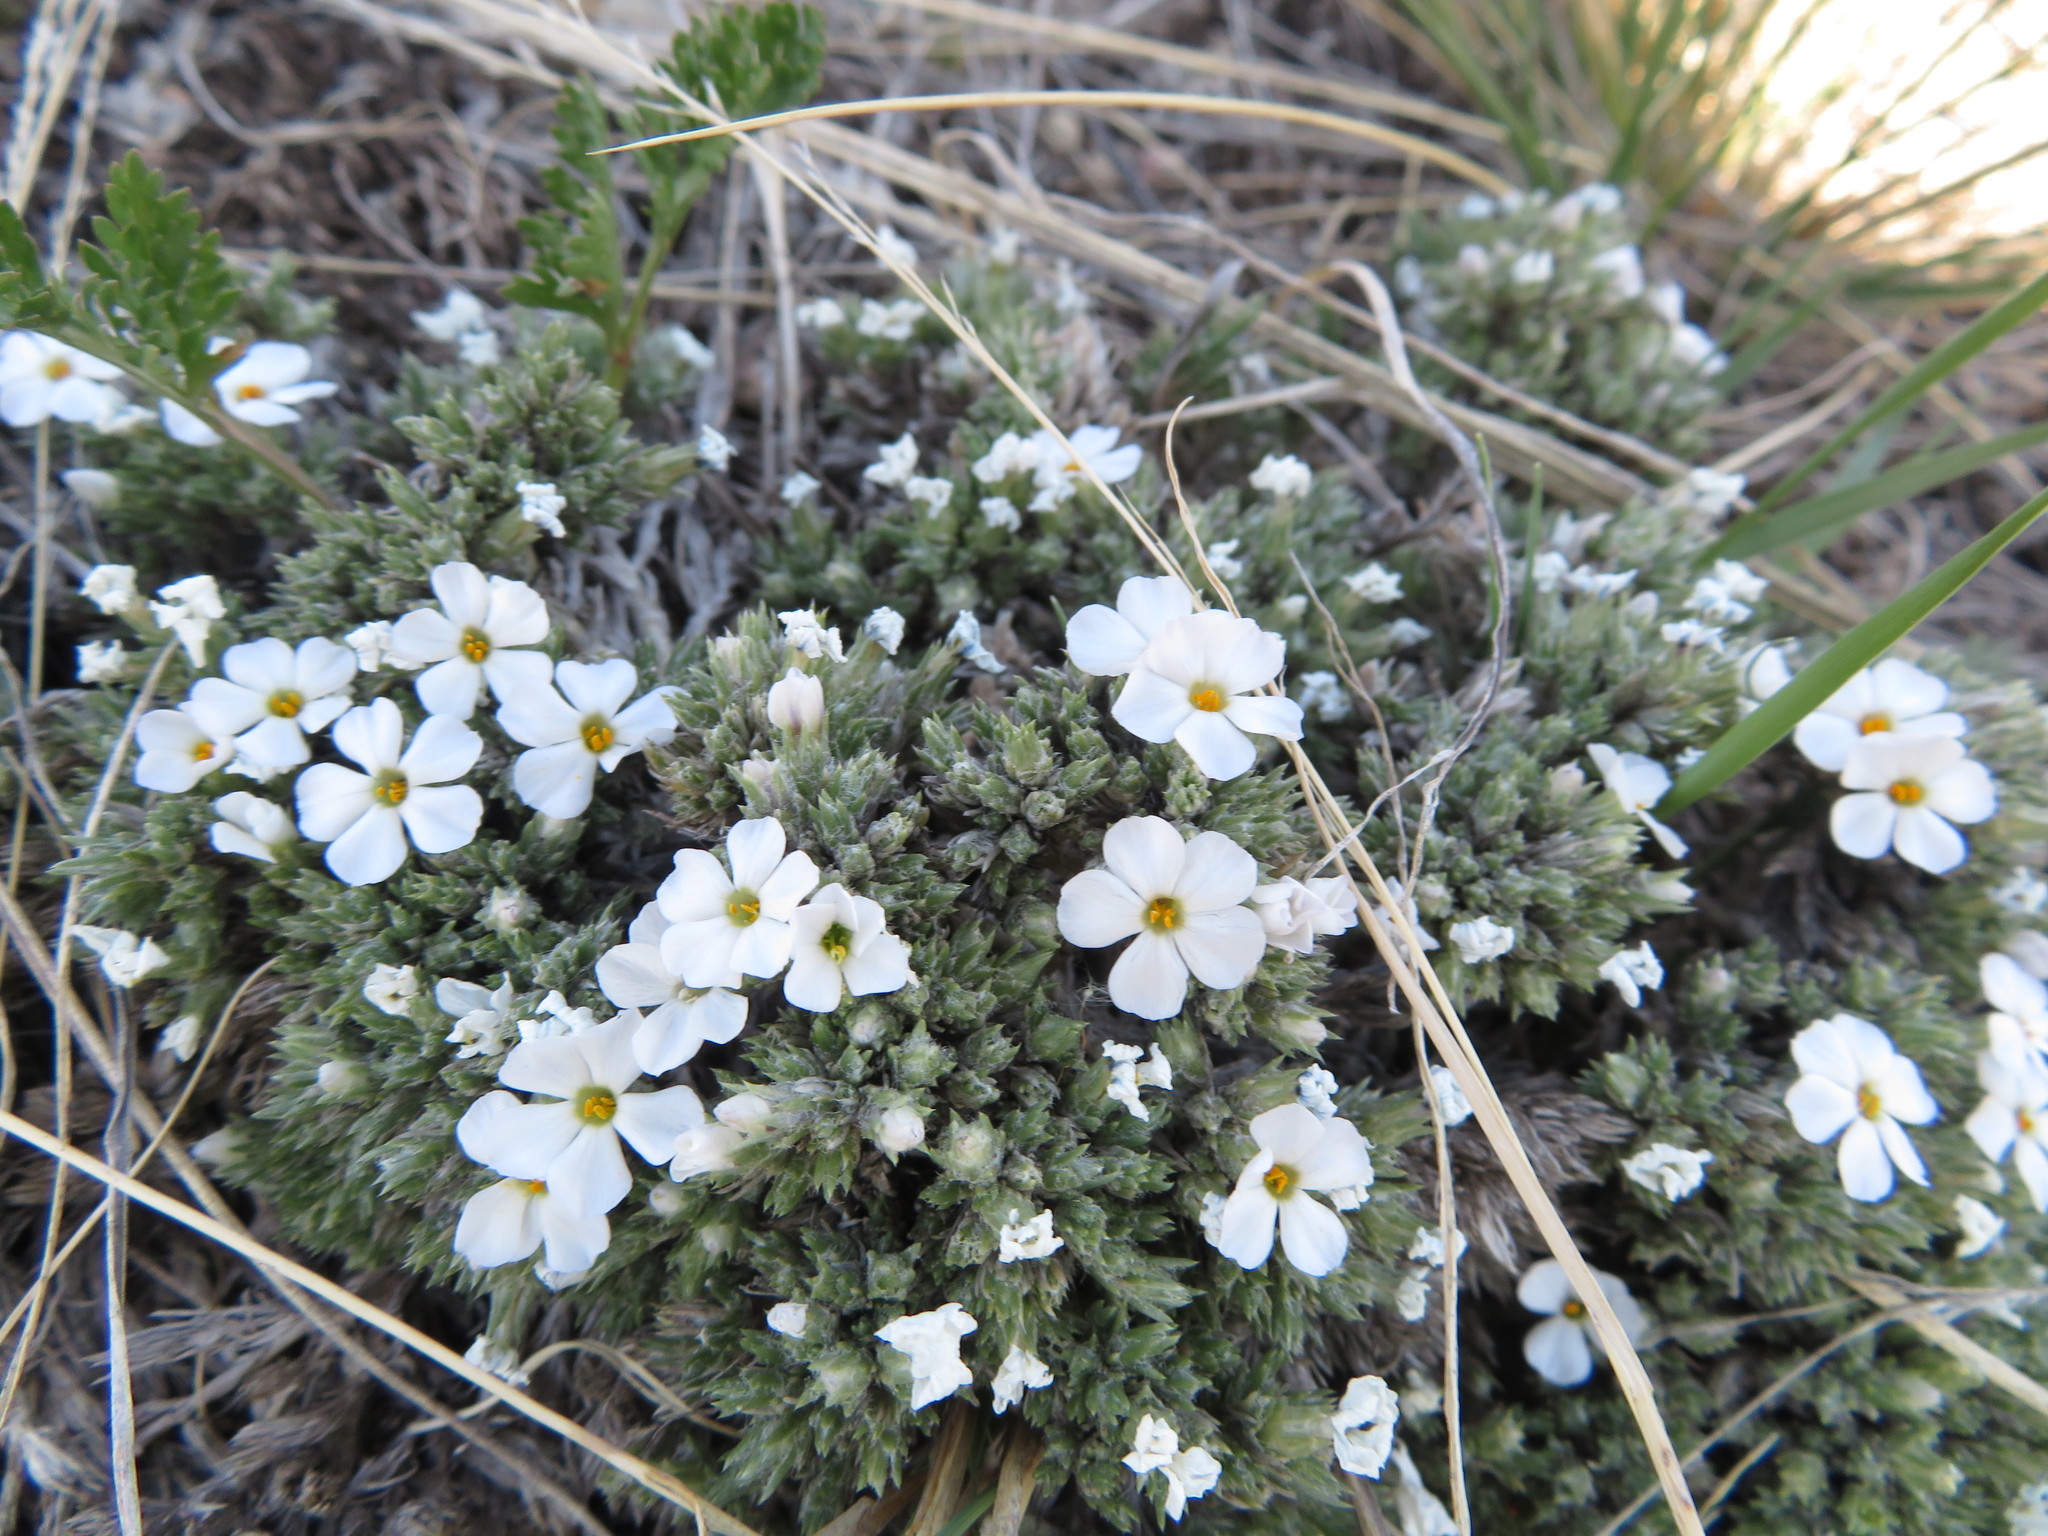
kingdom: Plantae
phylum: Tracheophyta
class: Magnoliopsida
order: Ericales
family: Polemoniaceae
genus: Phlox
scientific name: Phlox hoodii
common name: Moss phlox
